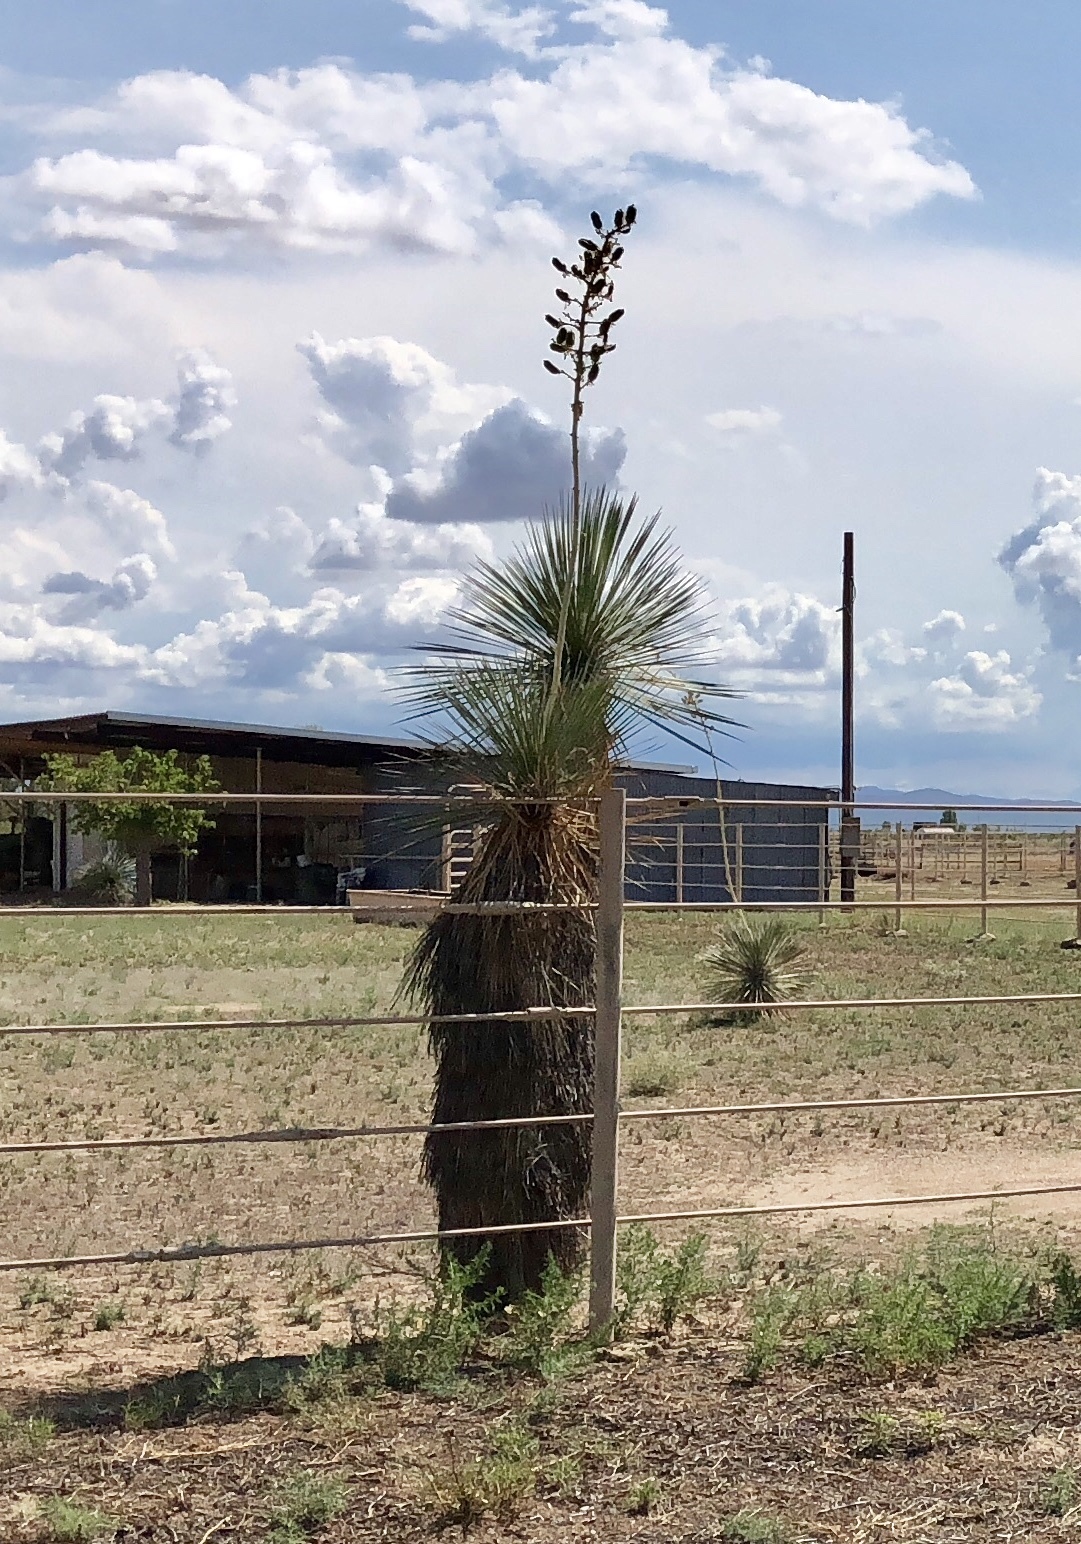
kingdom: Plantae
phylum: Tracheophyta
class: Liliopsida
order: Asparagales
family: Asparagaceae
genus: Yucca
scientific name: Yucca elata
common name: Palmella
